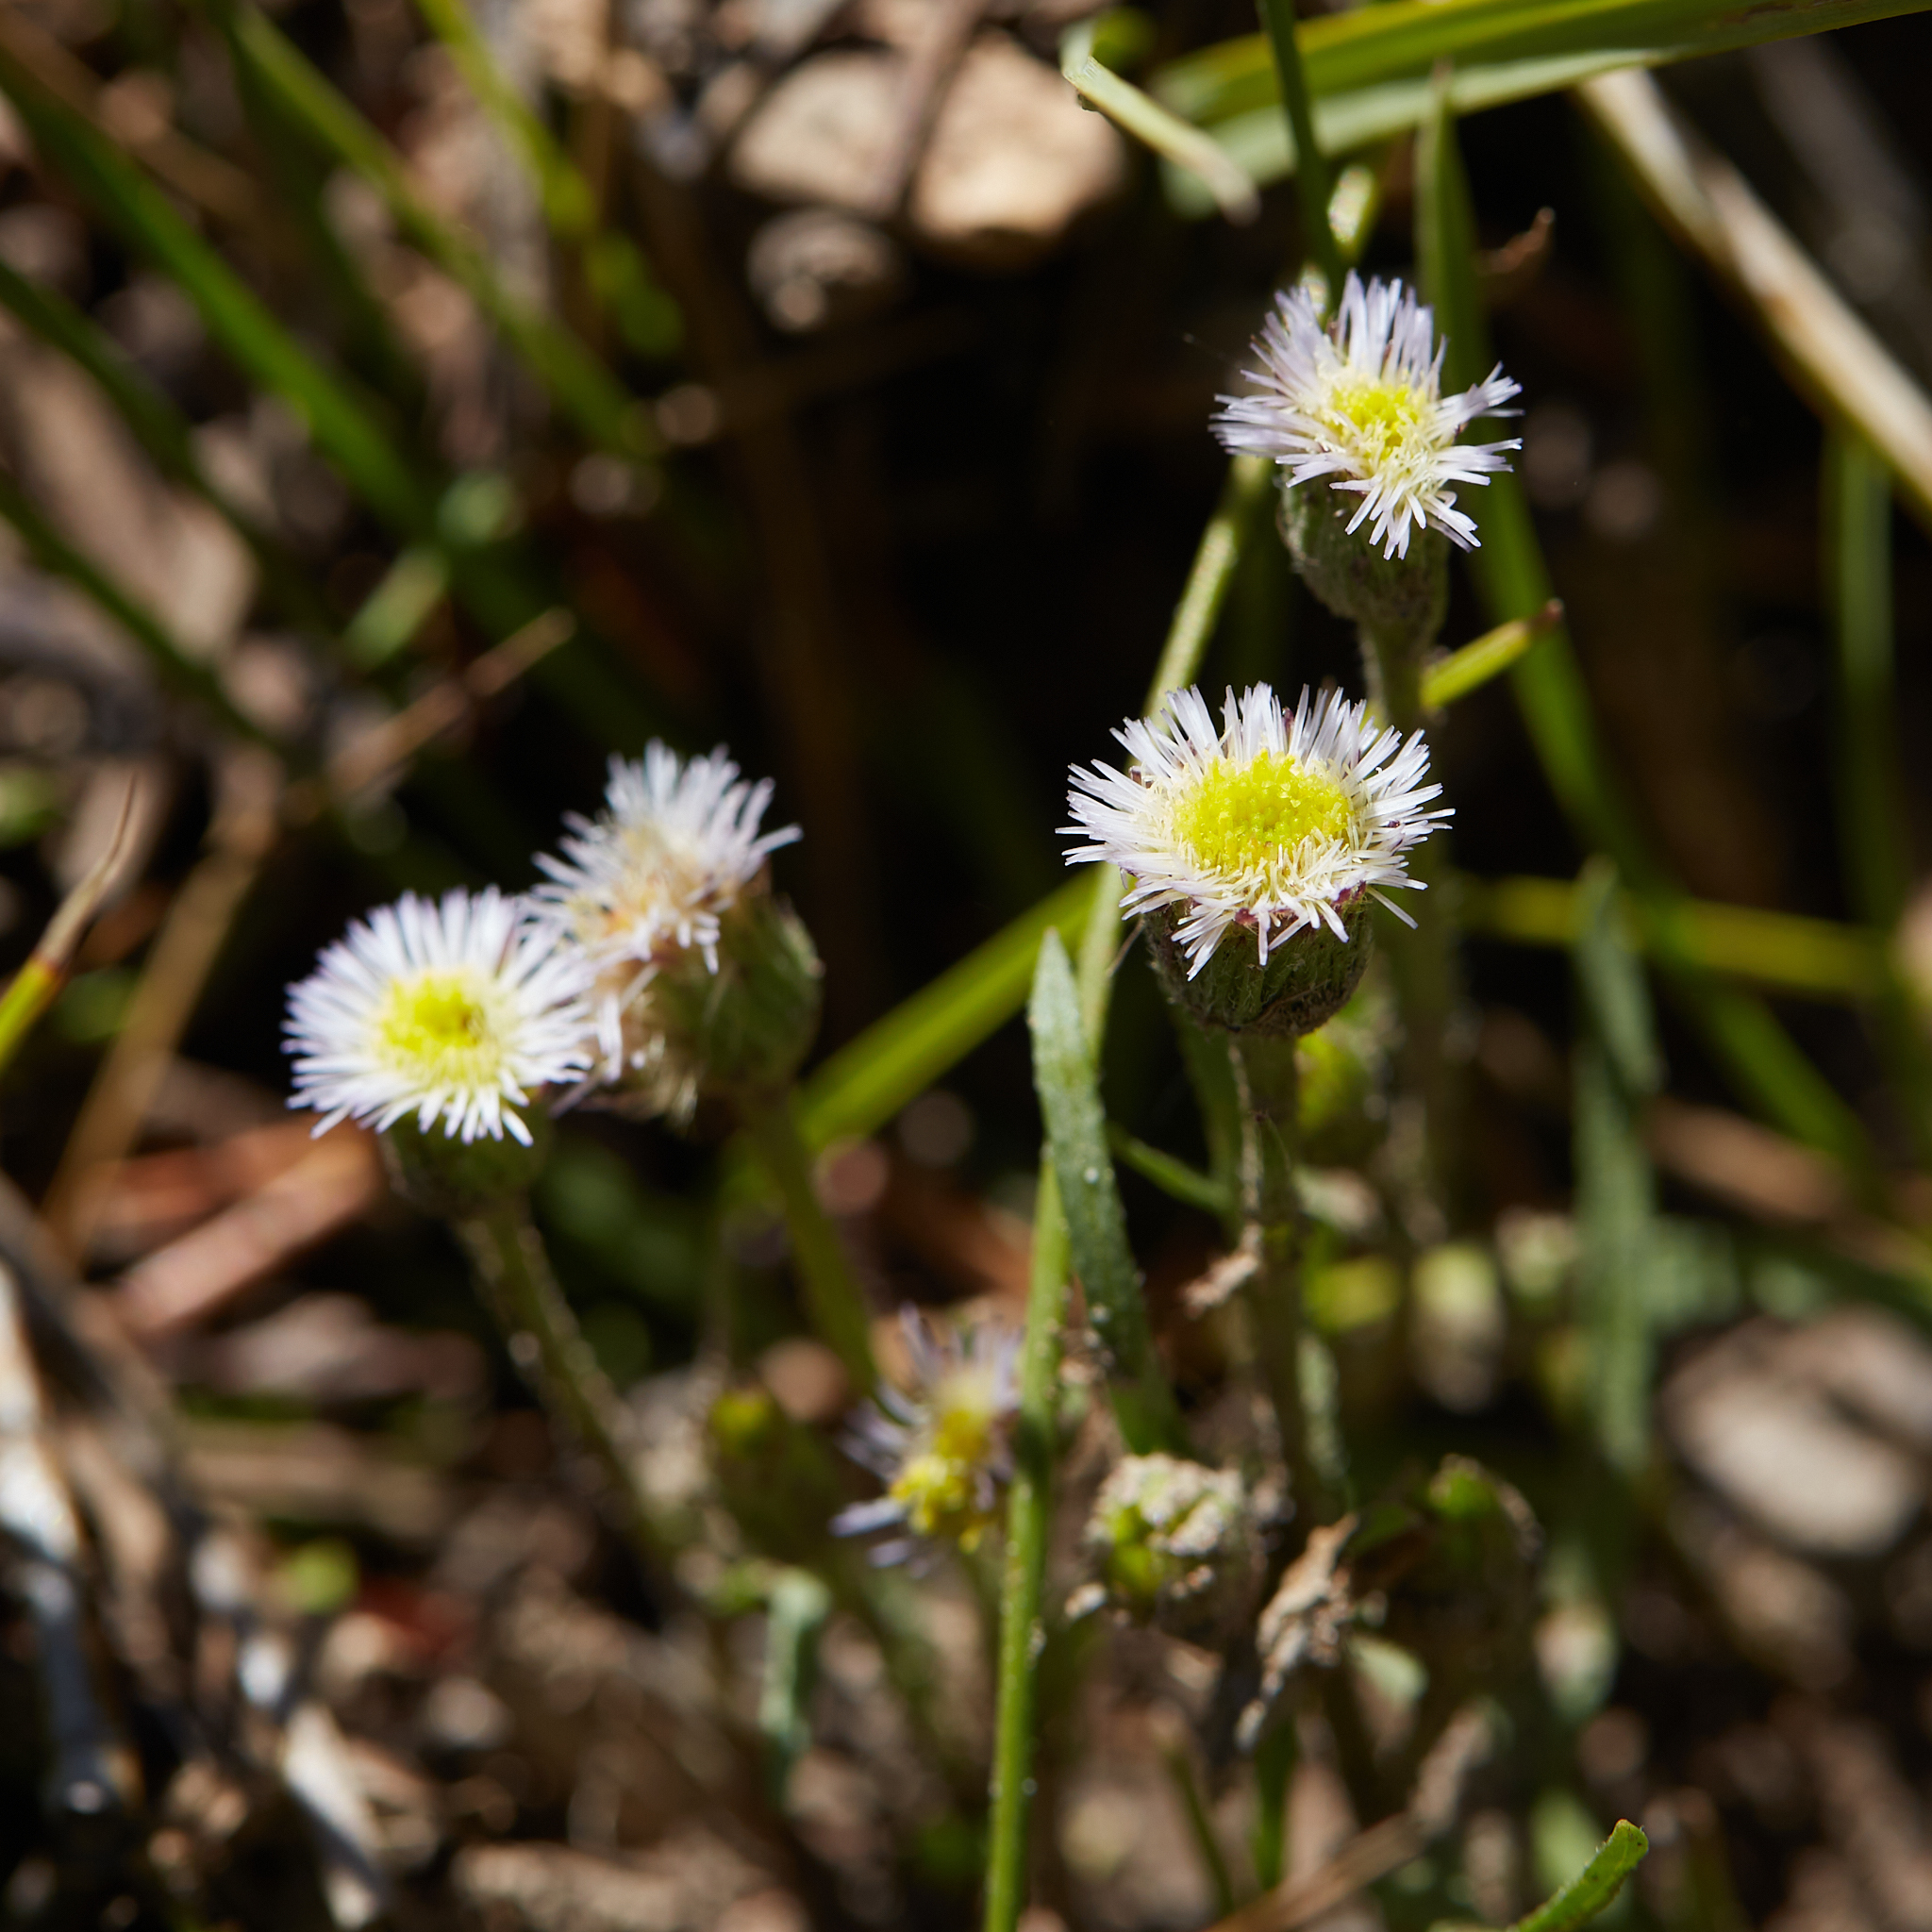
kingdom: Plantae
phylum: Tracheophyta
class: Magnoliopsida
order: Asterales
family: Asteraceae
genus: Erigeron
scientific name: Erigeron lonchophyllus
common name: Short-ray fleabane
